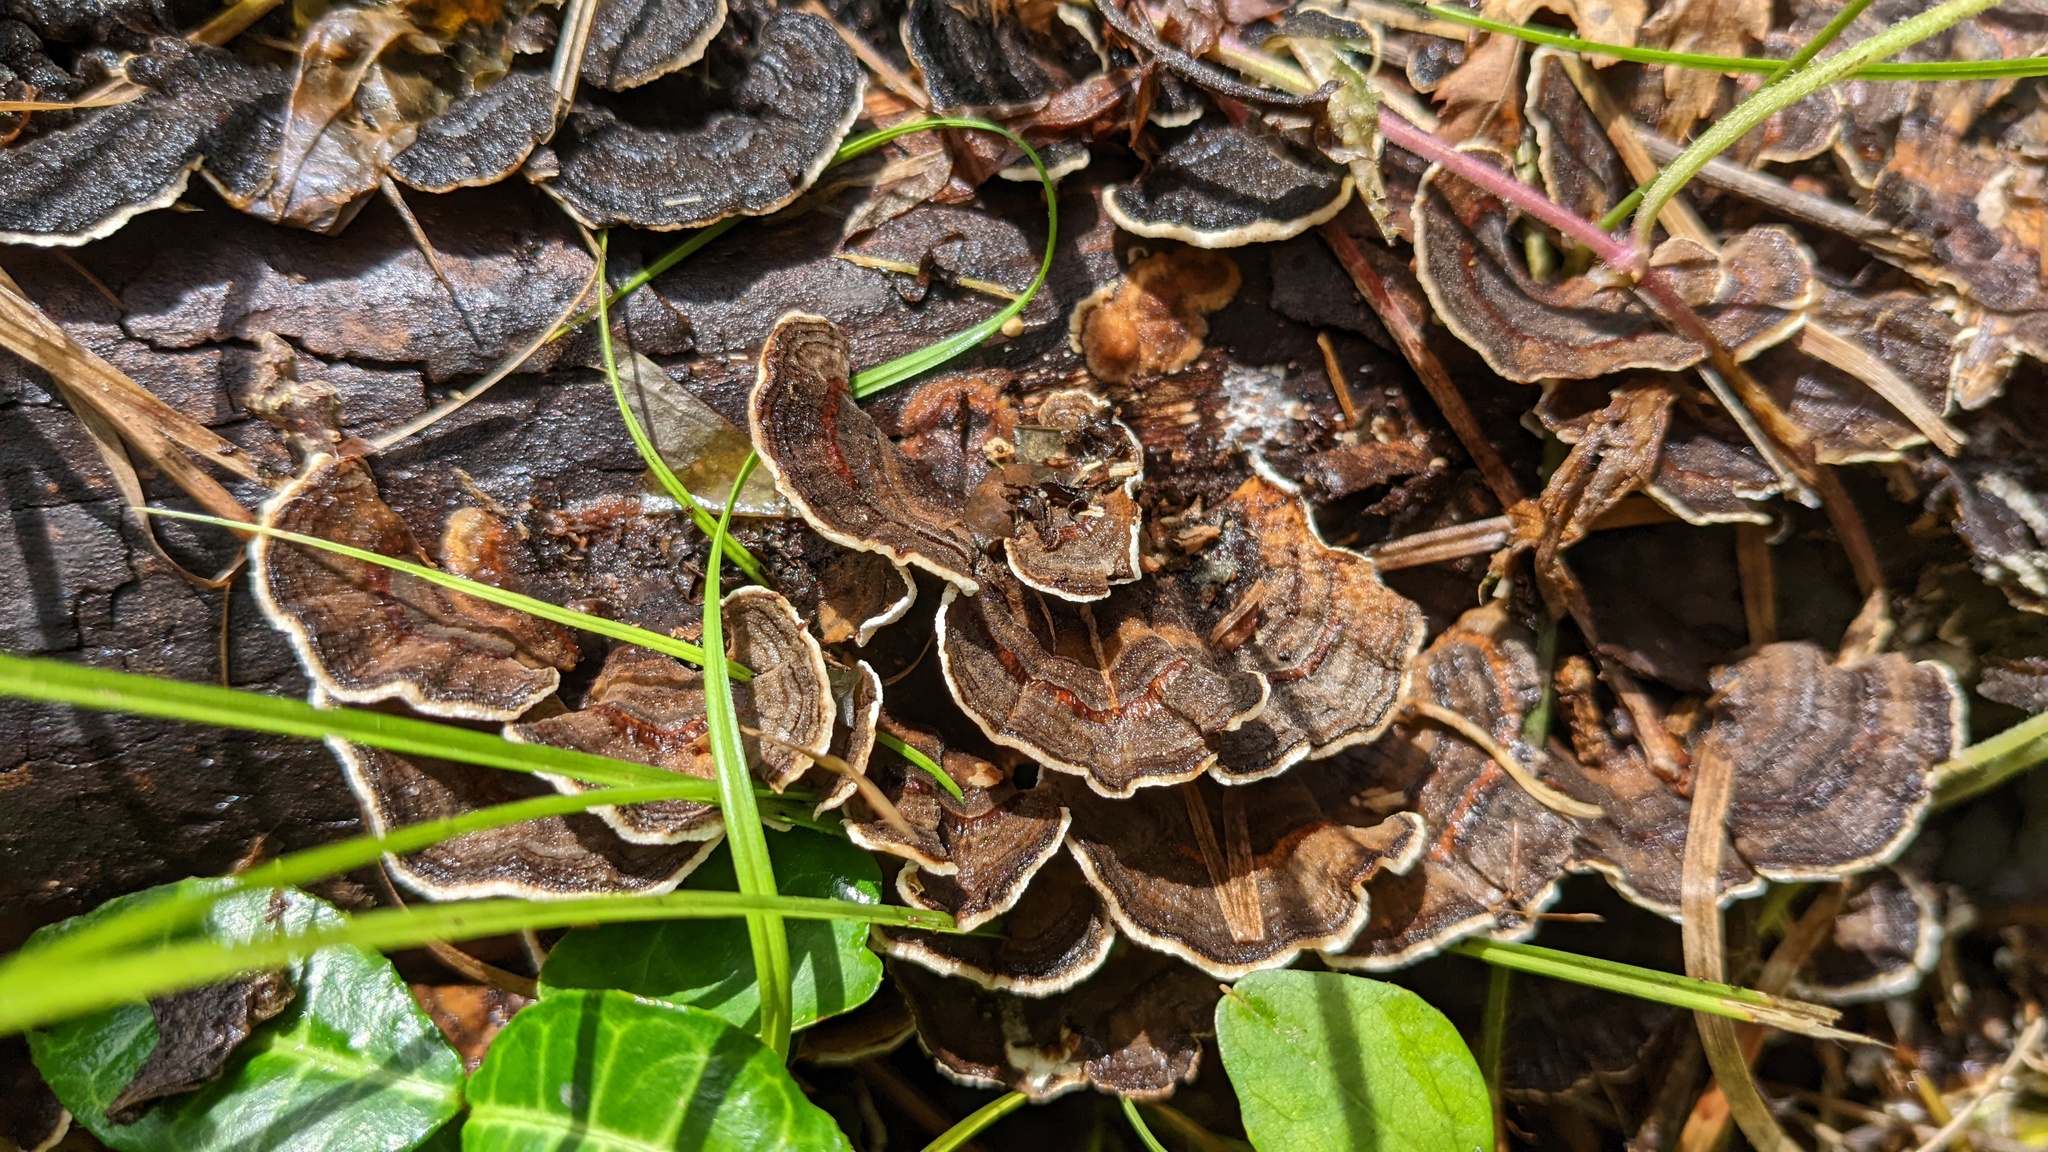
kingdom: Fungi
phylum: Basidiomycota
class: Agaricomycetes
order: Polyporales
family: Polyporaceae
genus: Trametes
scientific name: Trametes versicolor
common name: Turkeytail
